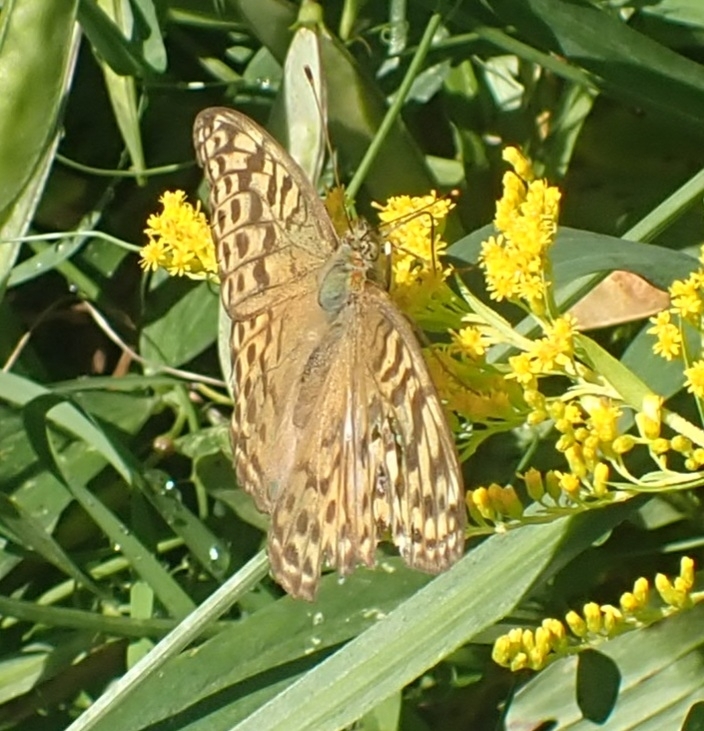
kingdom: Animalia
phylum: Arthropoda
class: Insecta
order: Lepidoptera
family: Nymphalidae
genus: Argynnis
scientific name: Argynnis paphia
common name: Silver-washed fritillary
